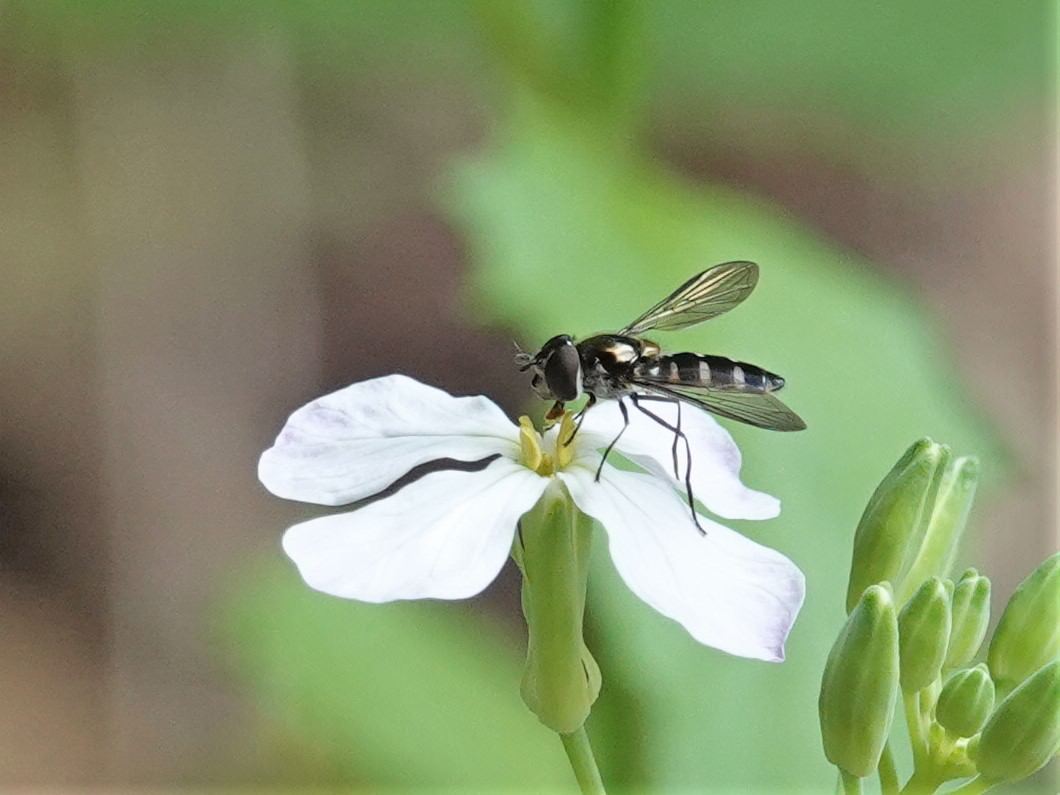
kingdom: Animalia
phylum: Arthropoda
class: Insecta
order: Diptera
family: Syrphidae
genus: Melangyna
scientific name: Melangyna novaezelandiae
